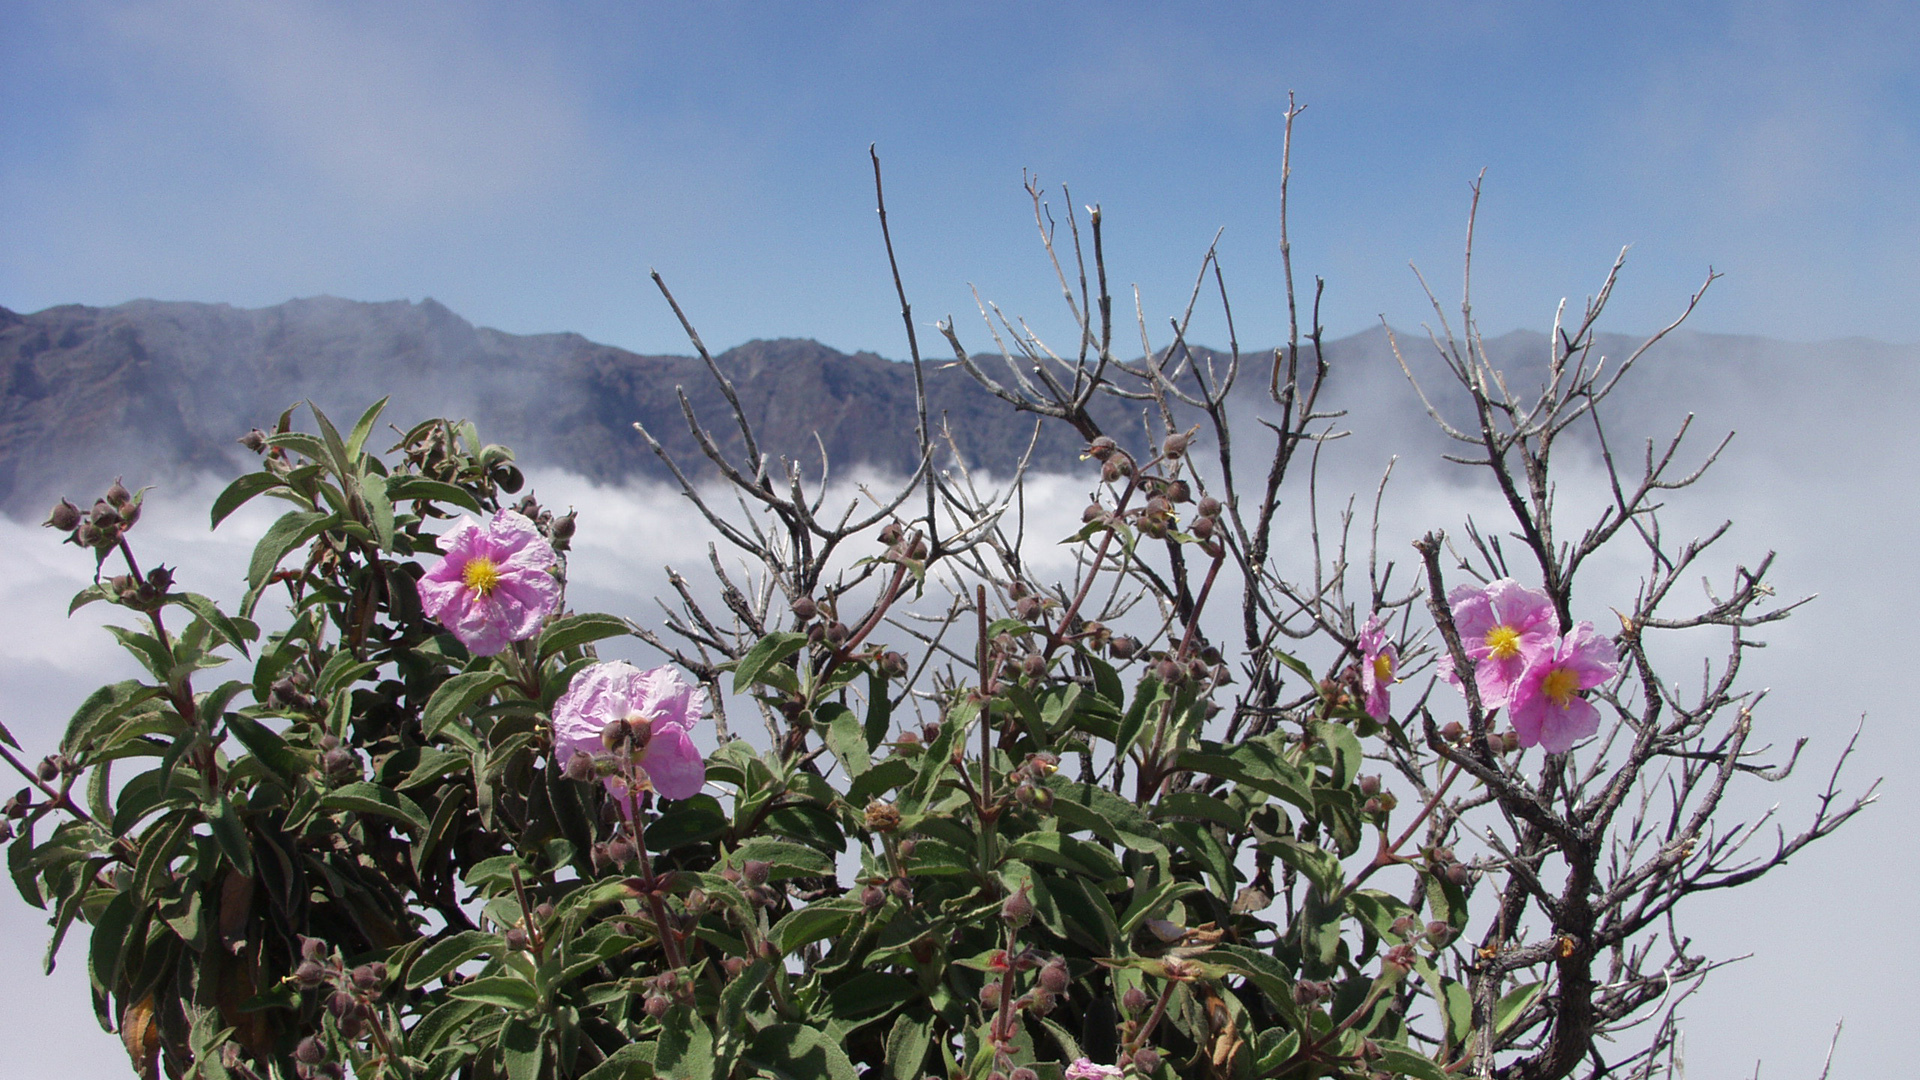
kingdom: Plantae
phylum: Tracheophyta
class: Magnoliopsida
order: Malvales
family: Cistaceae
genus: Cistus
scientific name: Cistus symphytifolius
